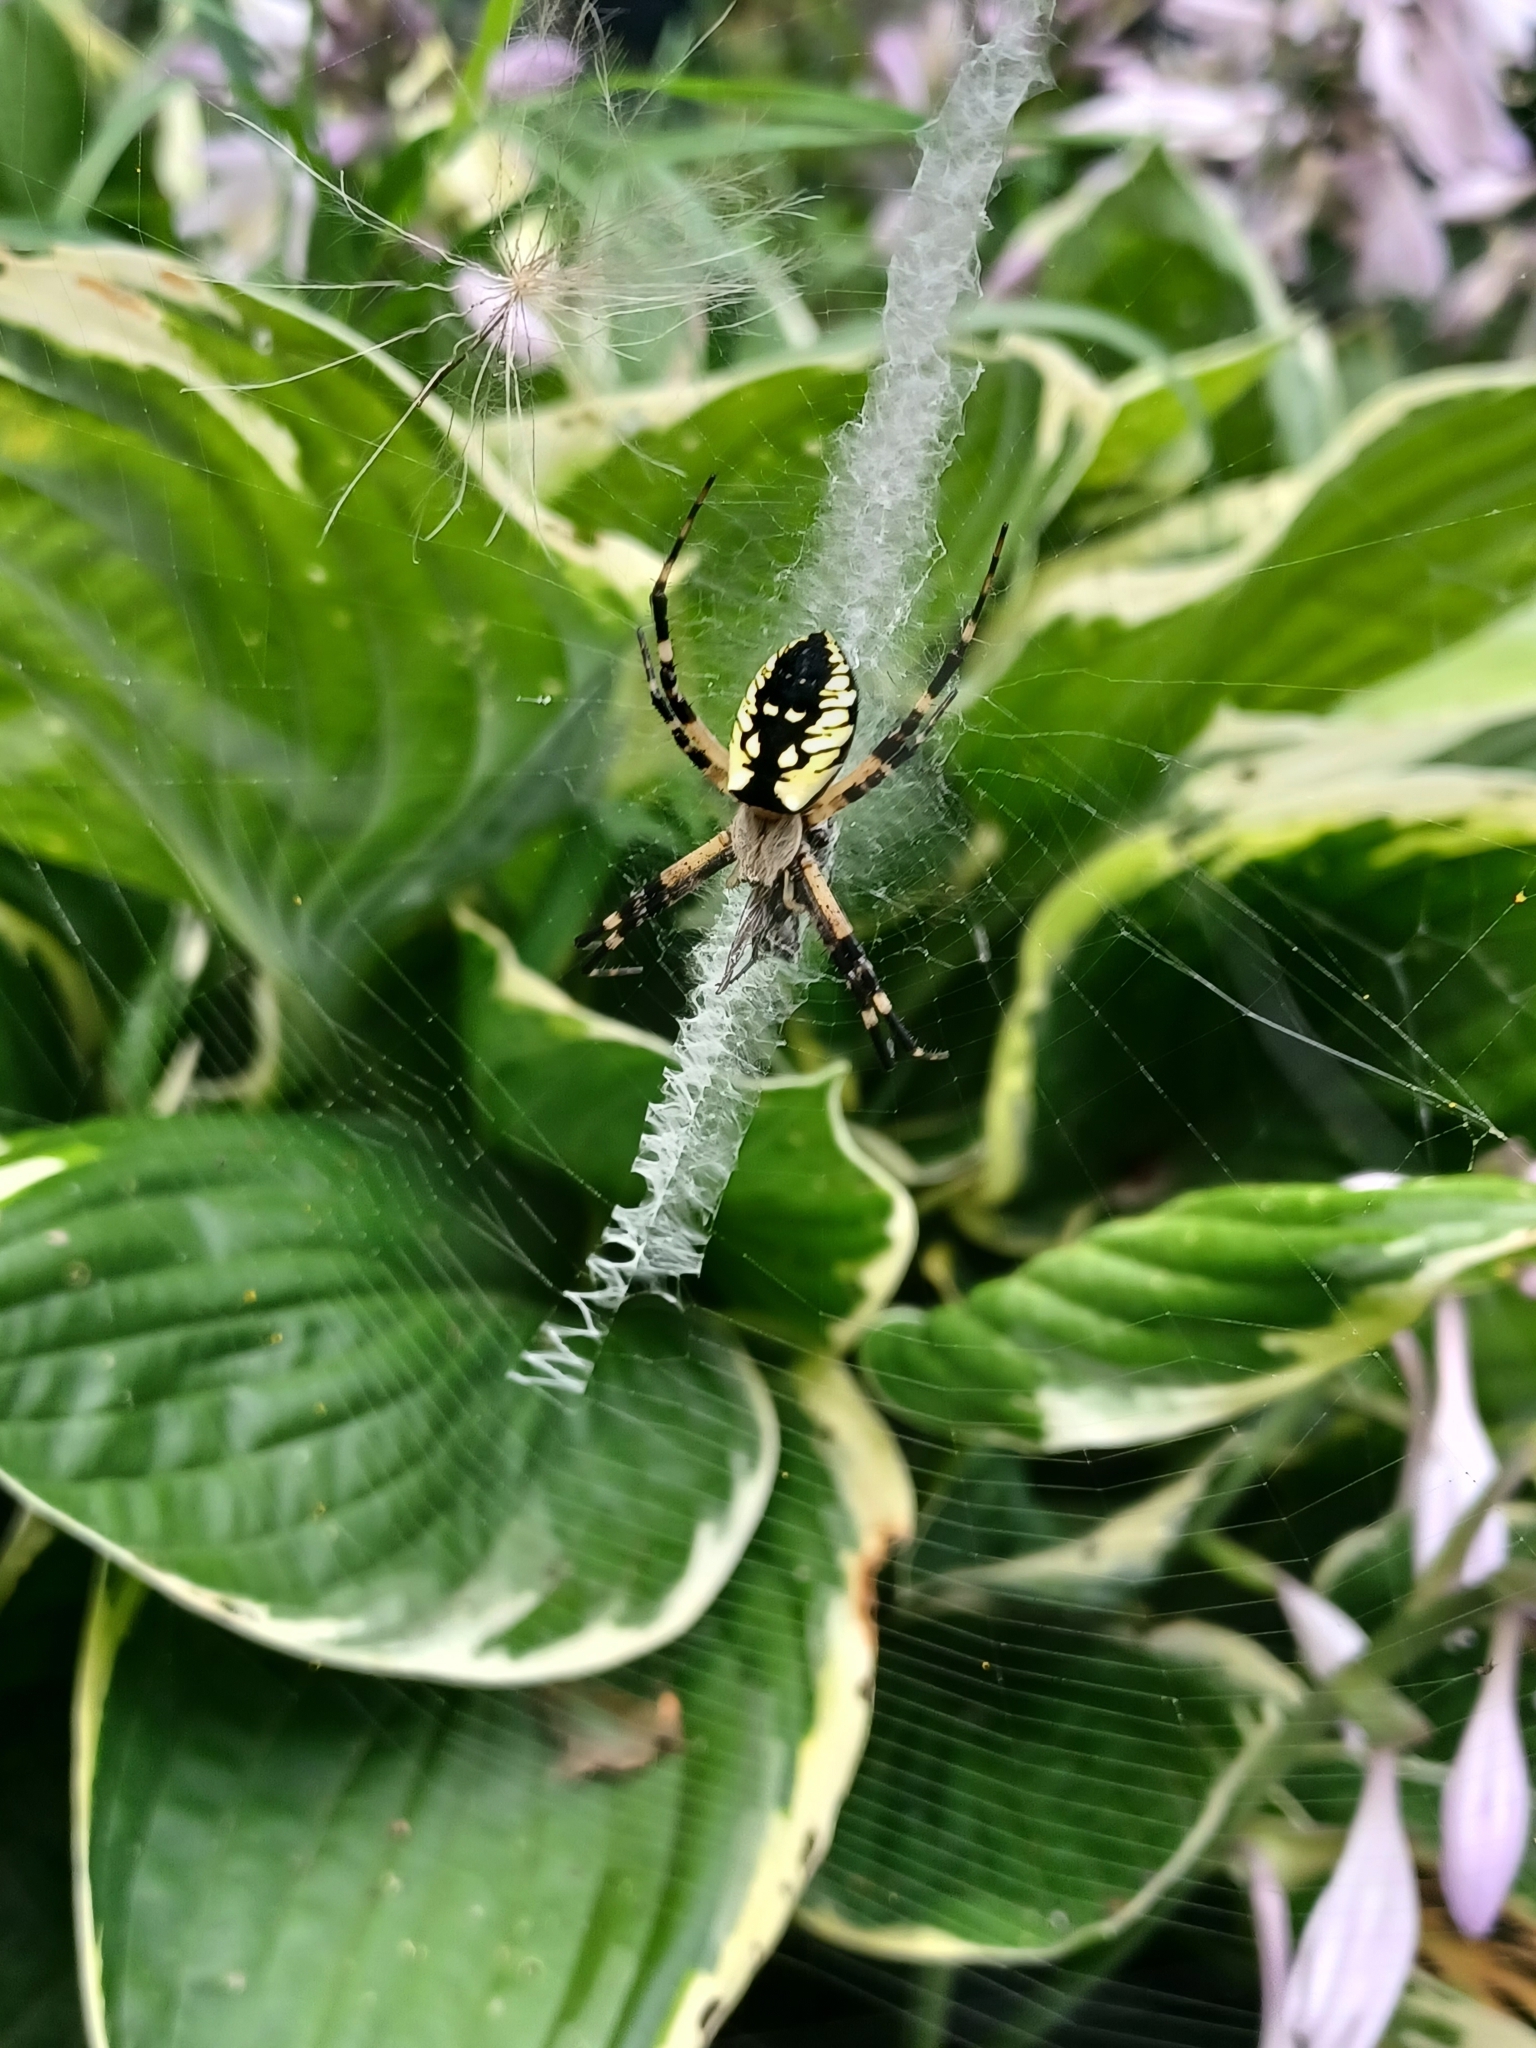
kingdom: Animalia
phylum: Arthropoda
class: Arachnida
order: Araneae
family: Araneidae
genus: Argiope
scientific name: Argiope aurantia
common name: Orb weavers
